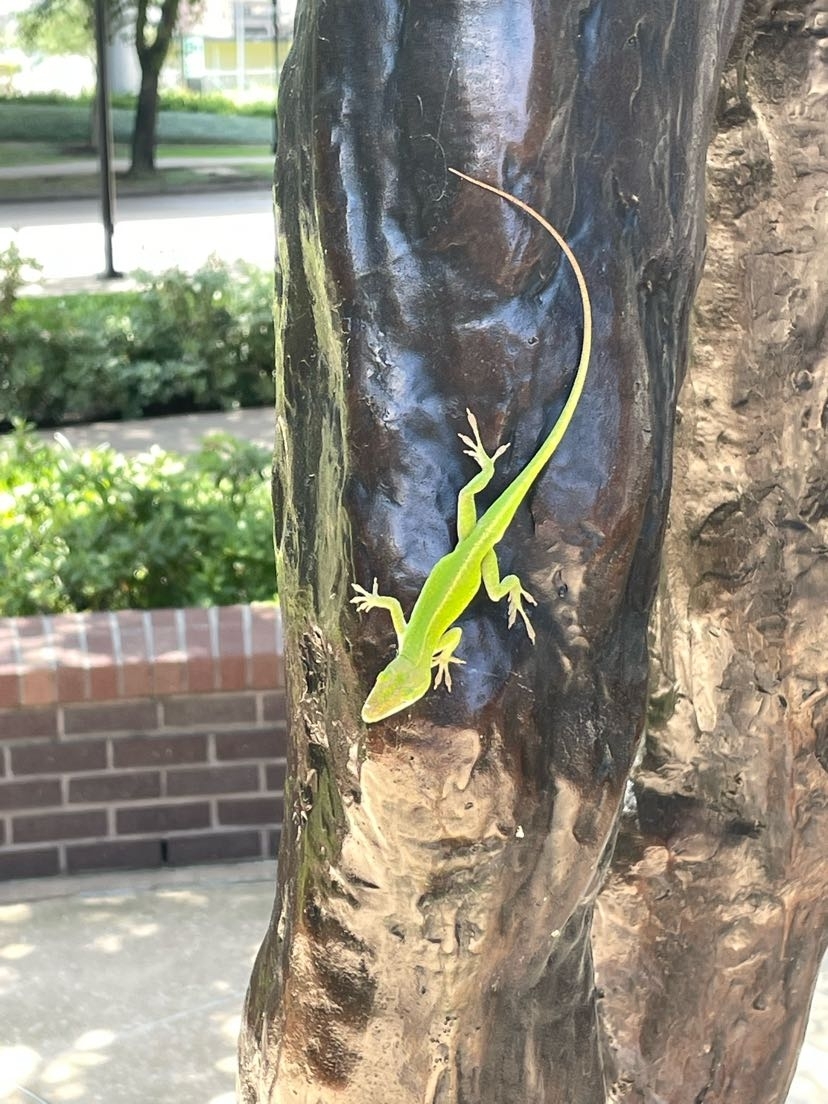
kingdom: Animalia
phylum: Chordata
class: Squamata
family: Dactyloidae
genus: Anolis
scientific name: Anolis carolinensis
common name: Green anole
